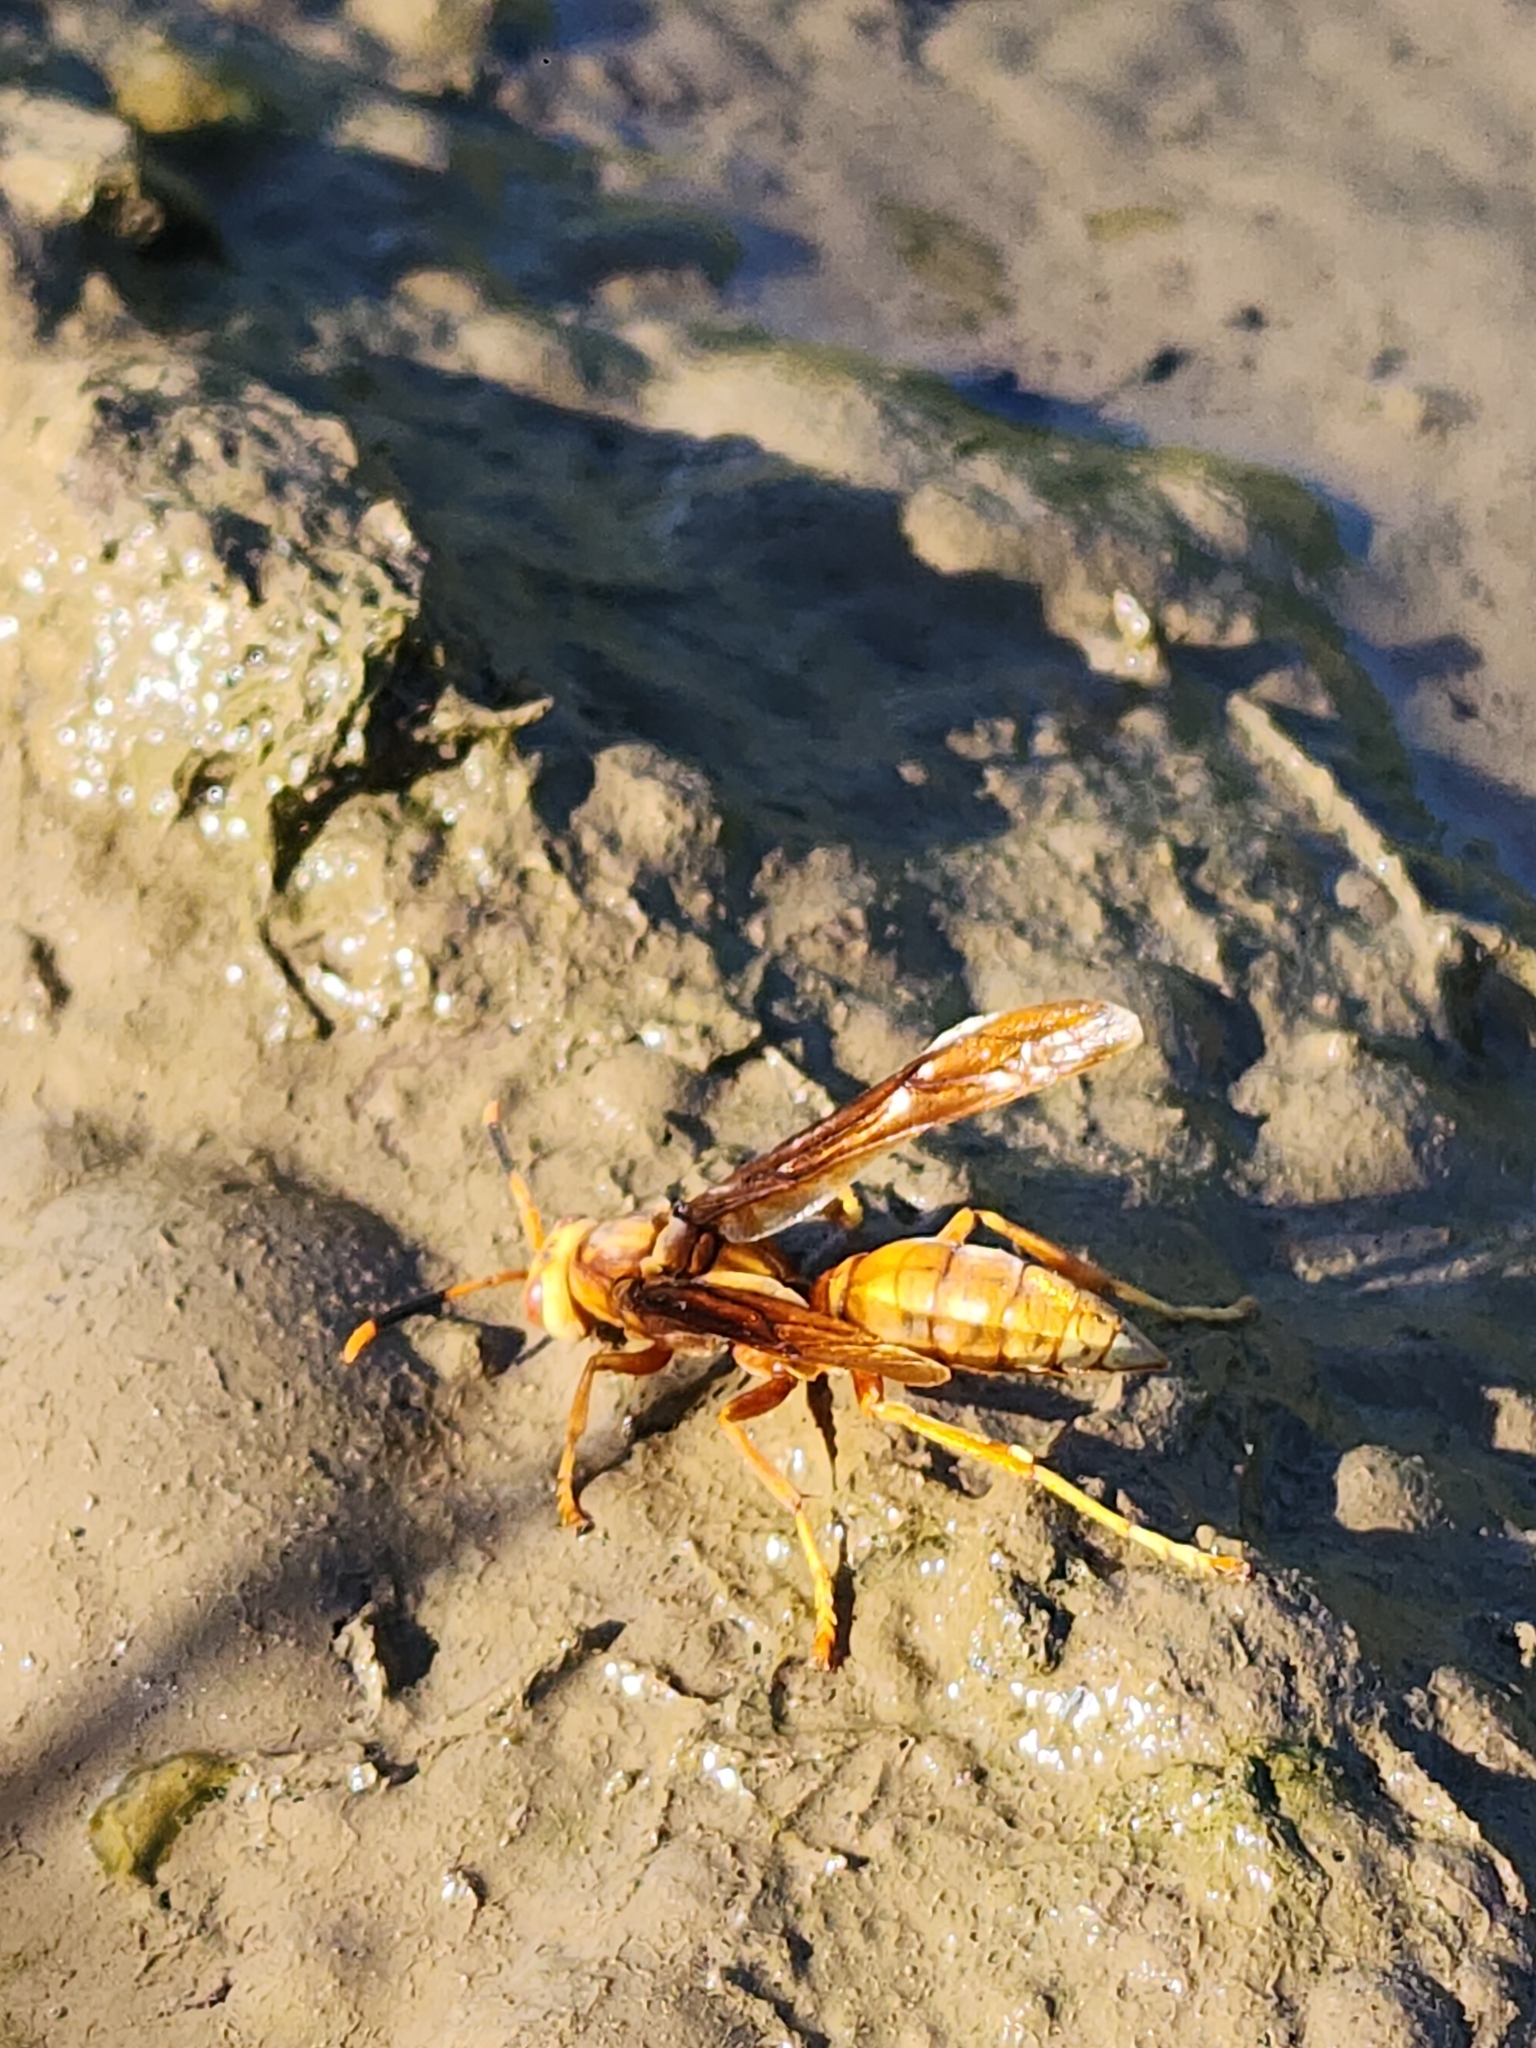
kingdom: Animalia
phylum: Arthropoda
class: Insecta
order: Hymenoptera
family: Eumenidae
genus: Polistes
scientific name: Polistes cavapyta
